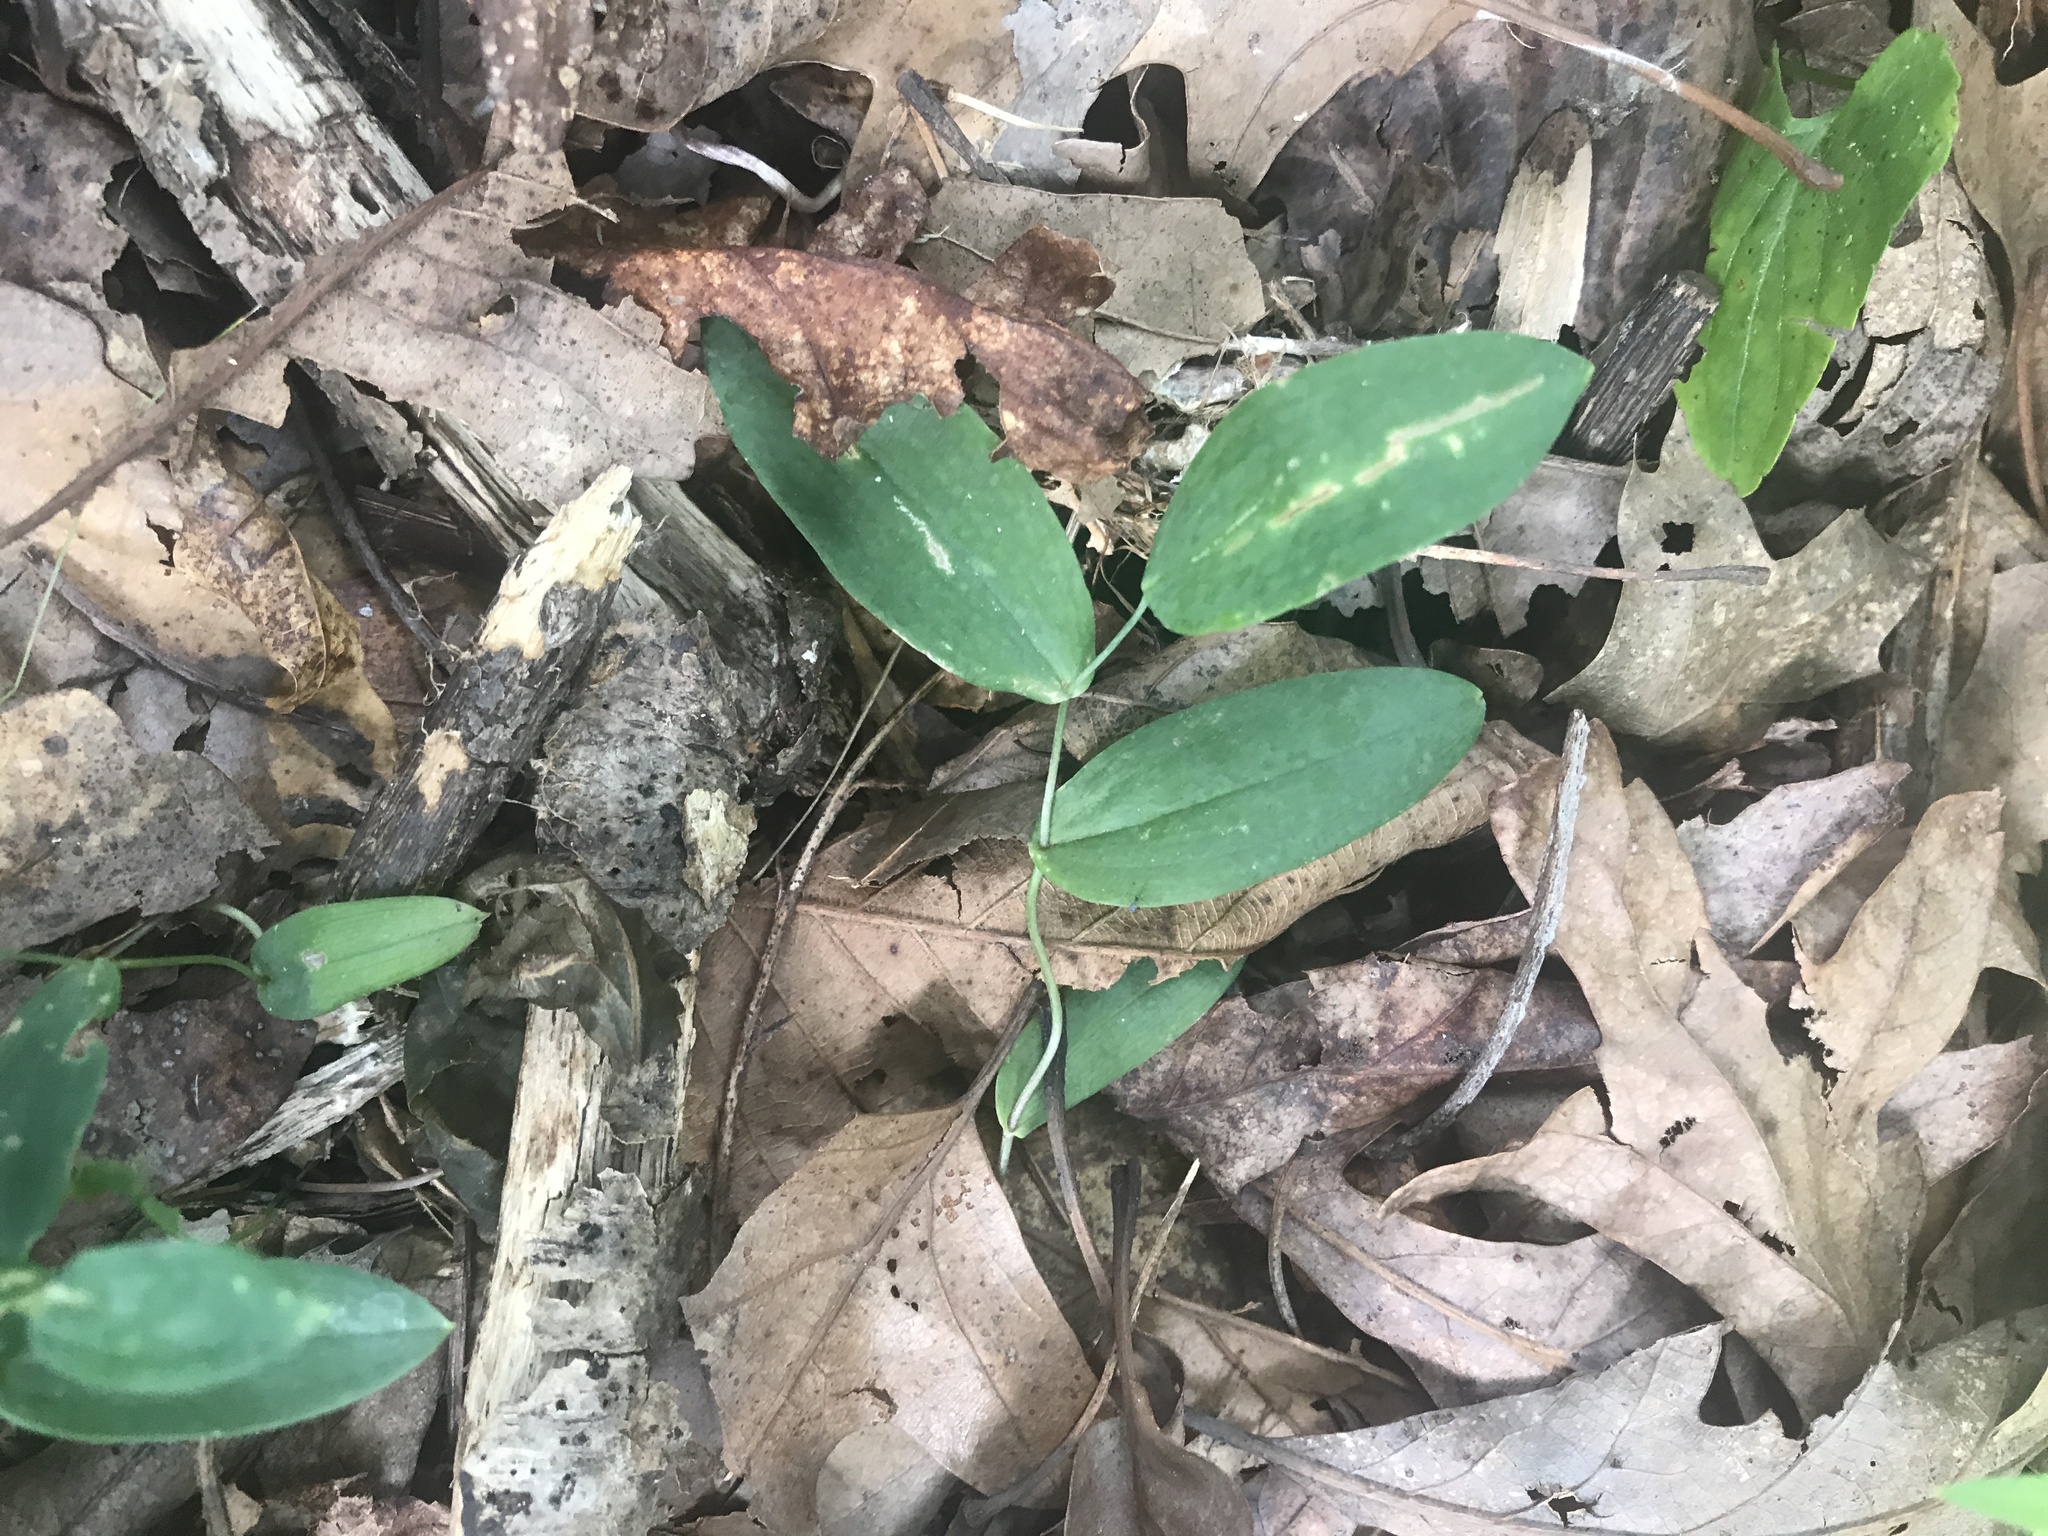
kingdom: Plantae
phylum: Tracheophyta
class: Liliopsida
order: Liliales
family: Colchicaceae
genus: Uvularia
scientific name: Uvularia perfoliata
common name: Perfoliate bellwort
